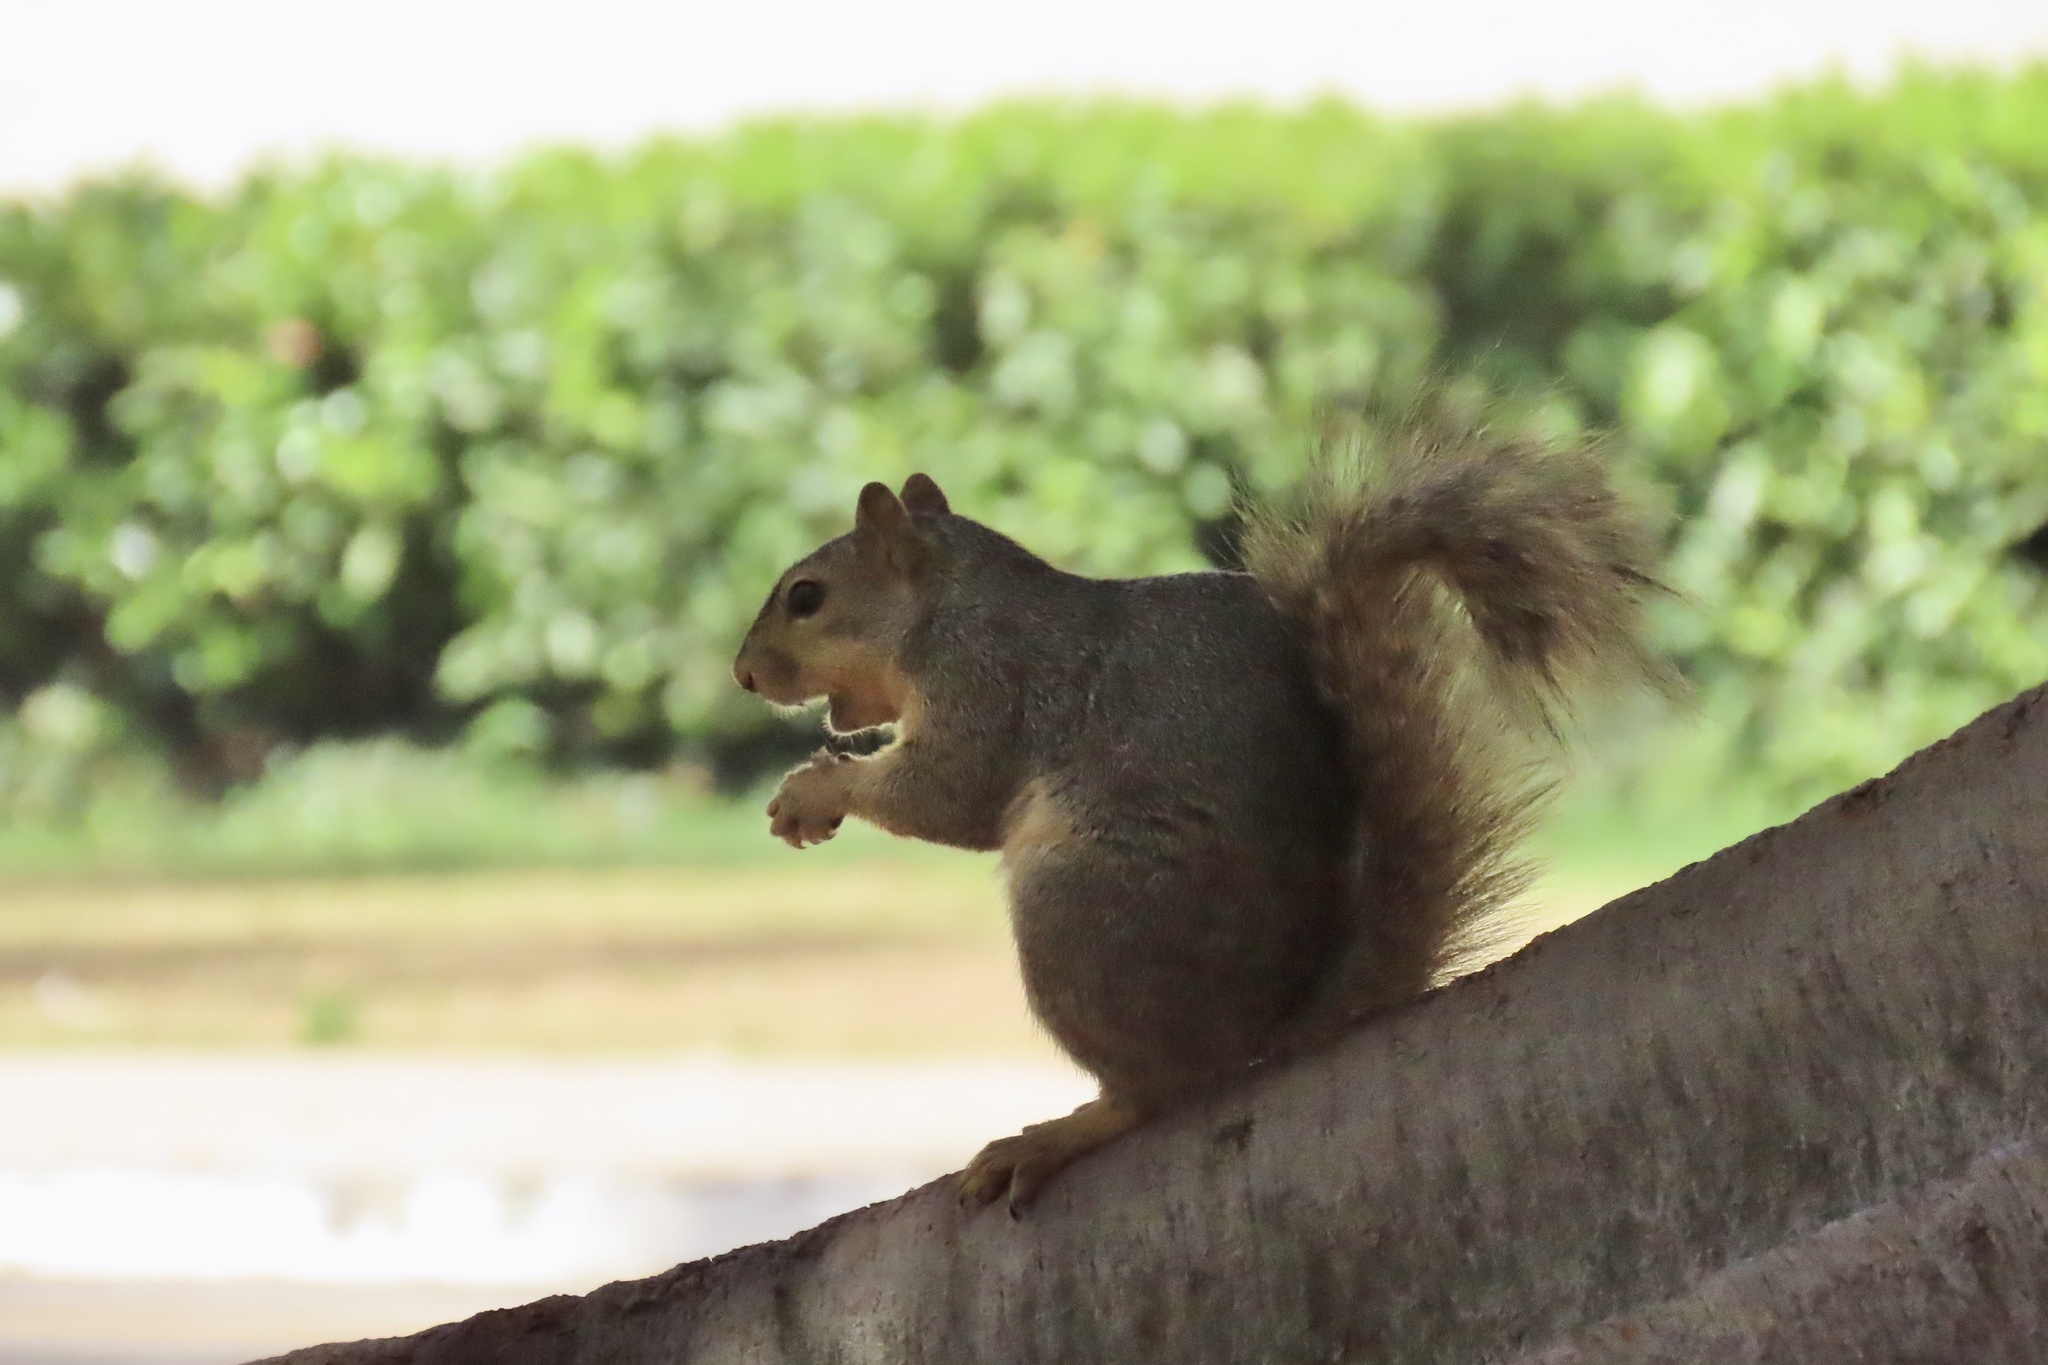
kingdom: Animalia
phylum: Chordata
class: Mammalia
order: Rodentia
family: Sciuridae
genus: Sciurus
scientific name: Sciurus niger
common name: Fox squirrel
